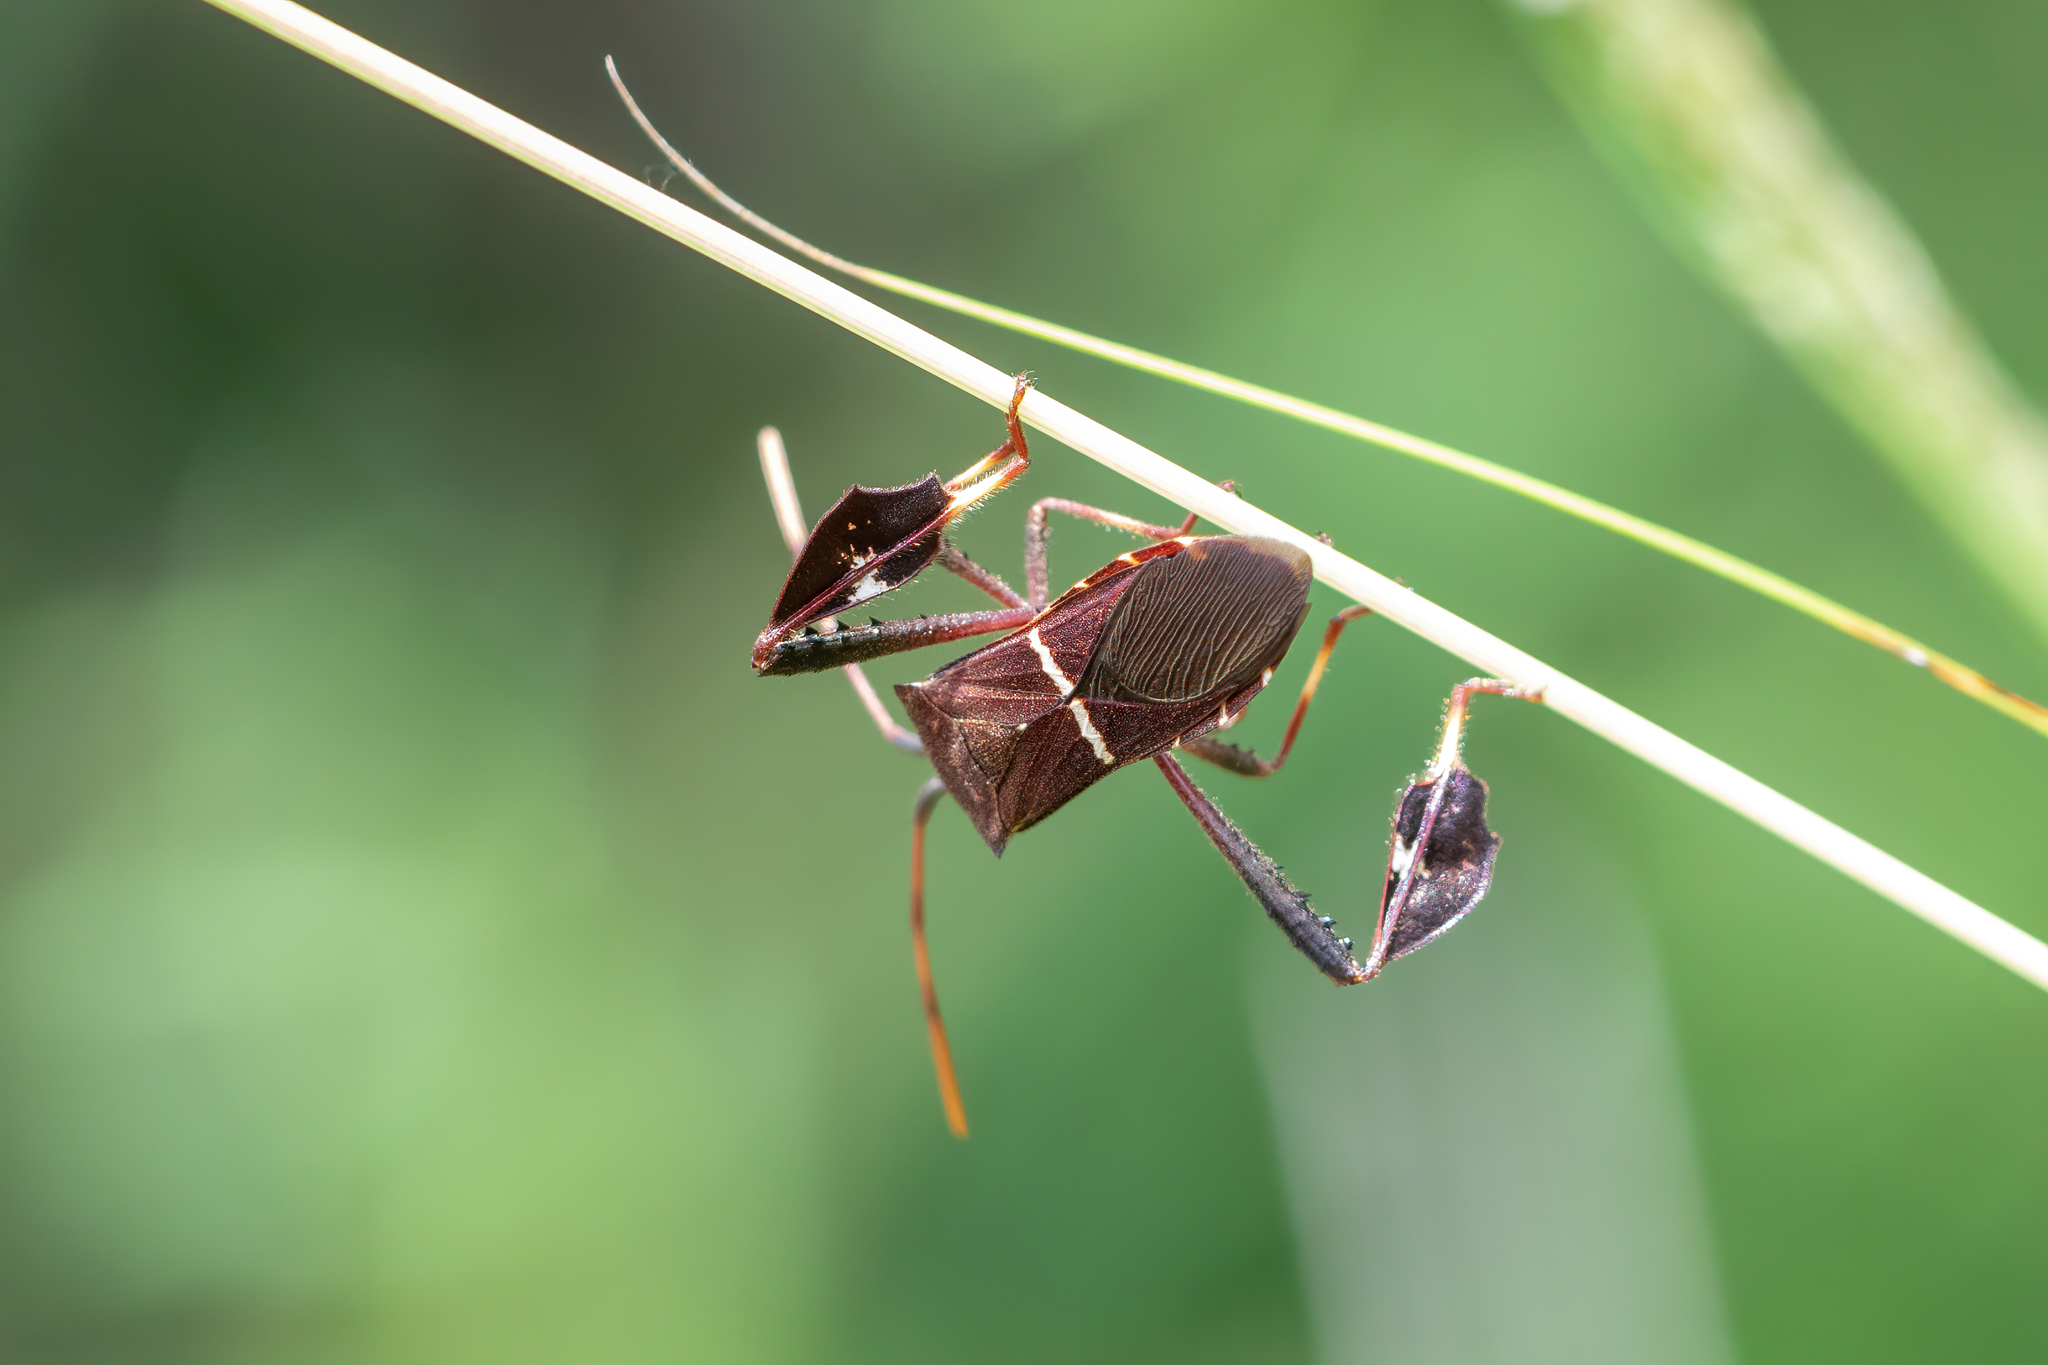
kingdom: Animalia
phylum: Arthropoda
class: Insecta
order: Hemiptera
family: Coreidae
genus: Leptoglossus
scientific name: Leptoglossus phyllopus
